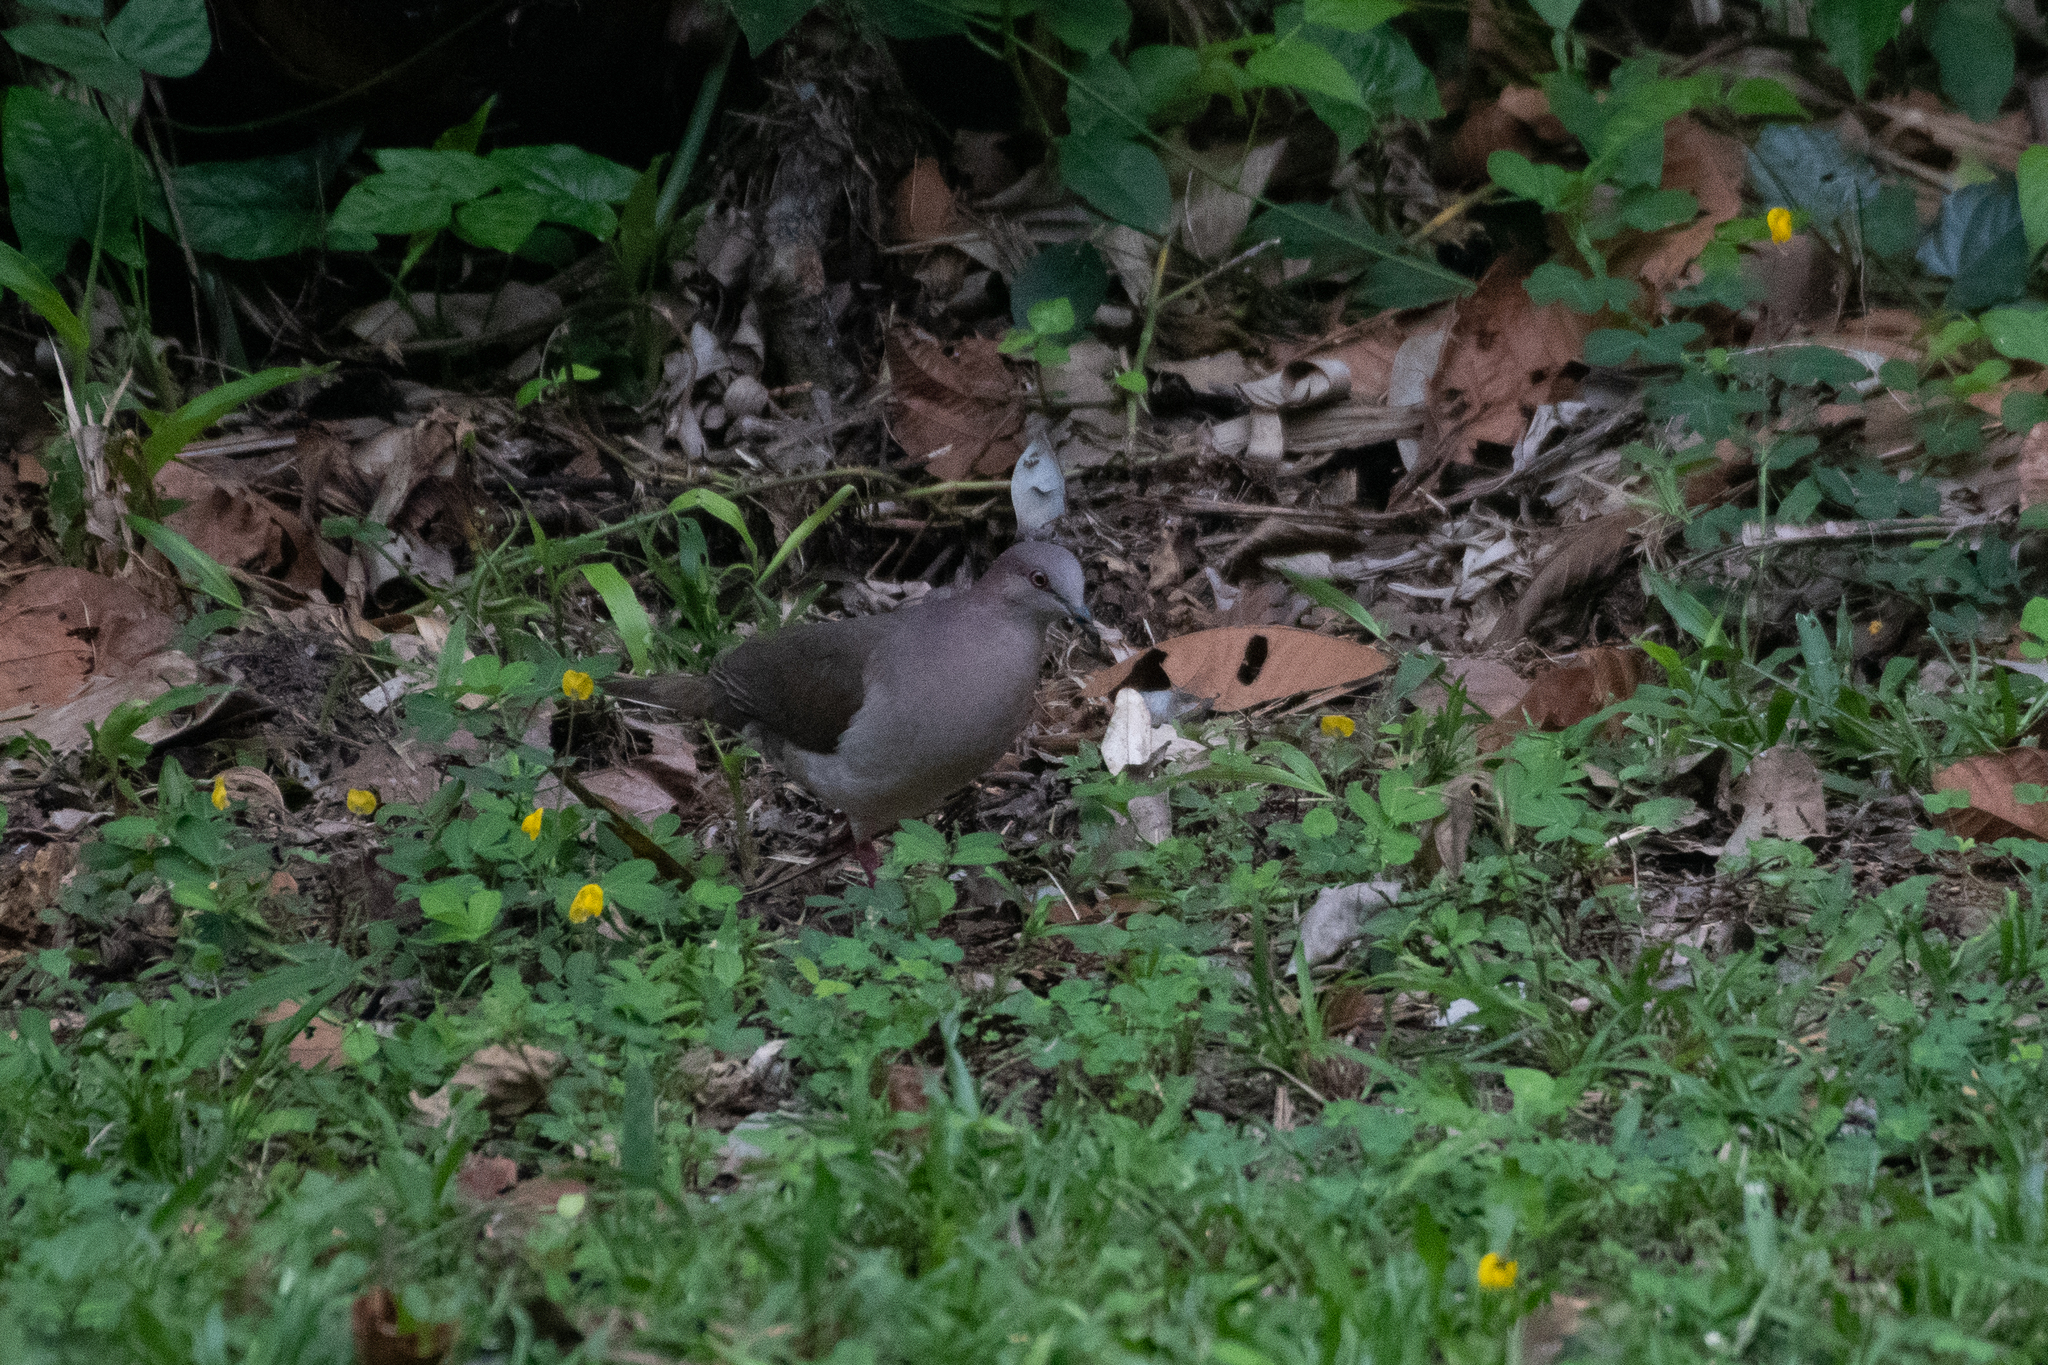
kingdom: Animalia
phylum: Chordata
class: Aves
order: Columbiformes
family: Columbidae
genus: Leptotila
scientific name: Leptotila verreauxi
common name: White-tipped dove
